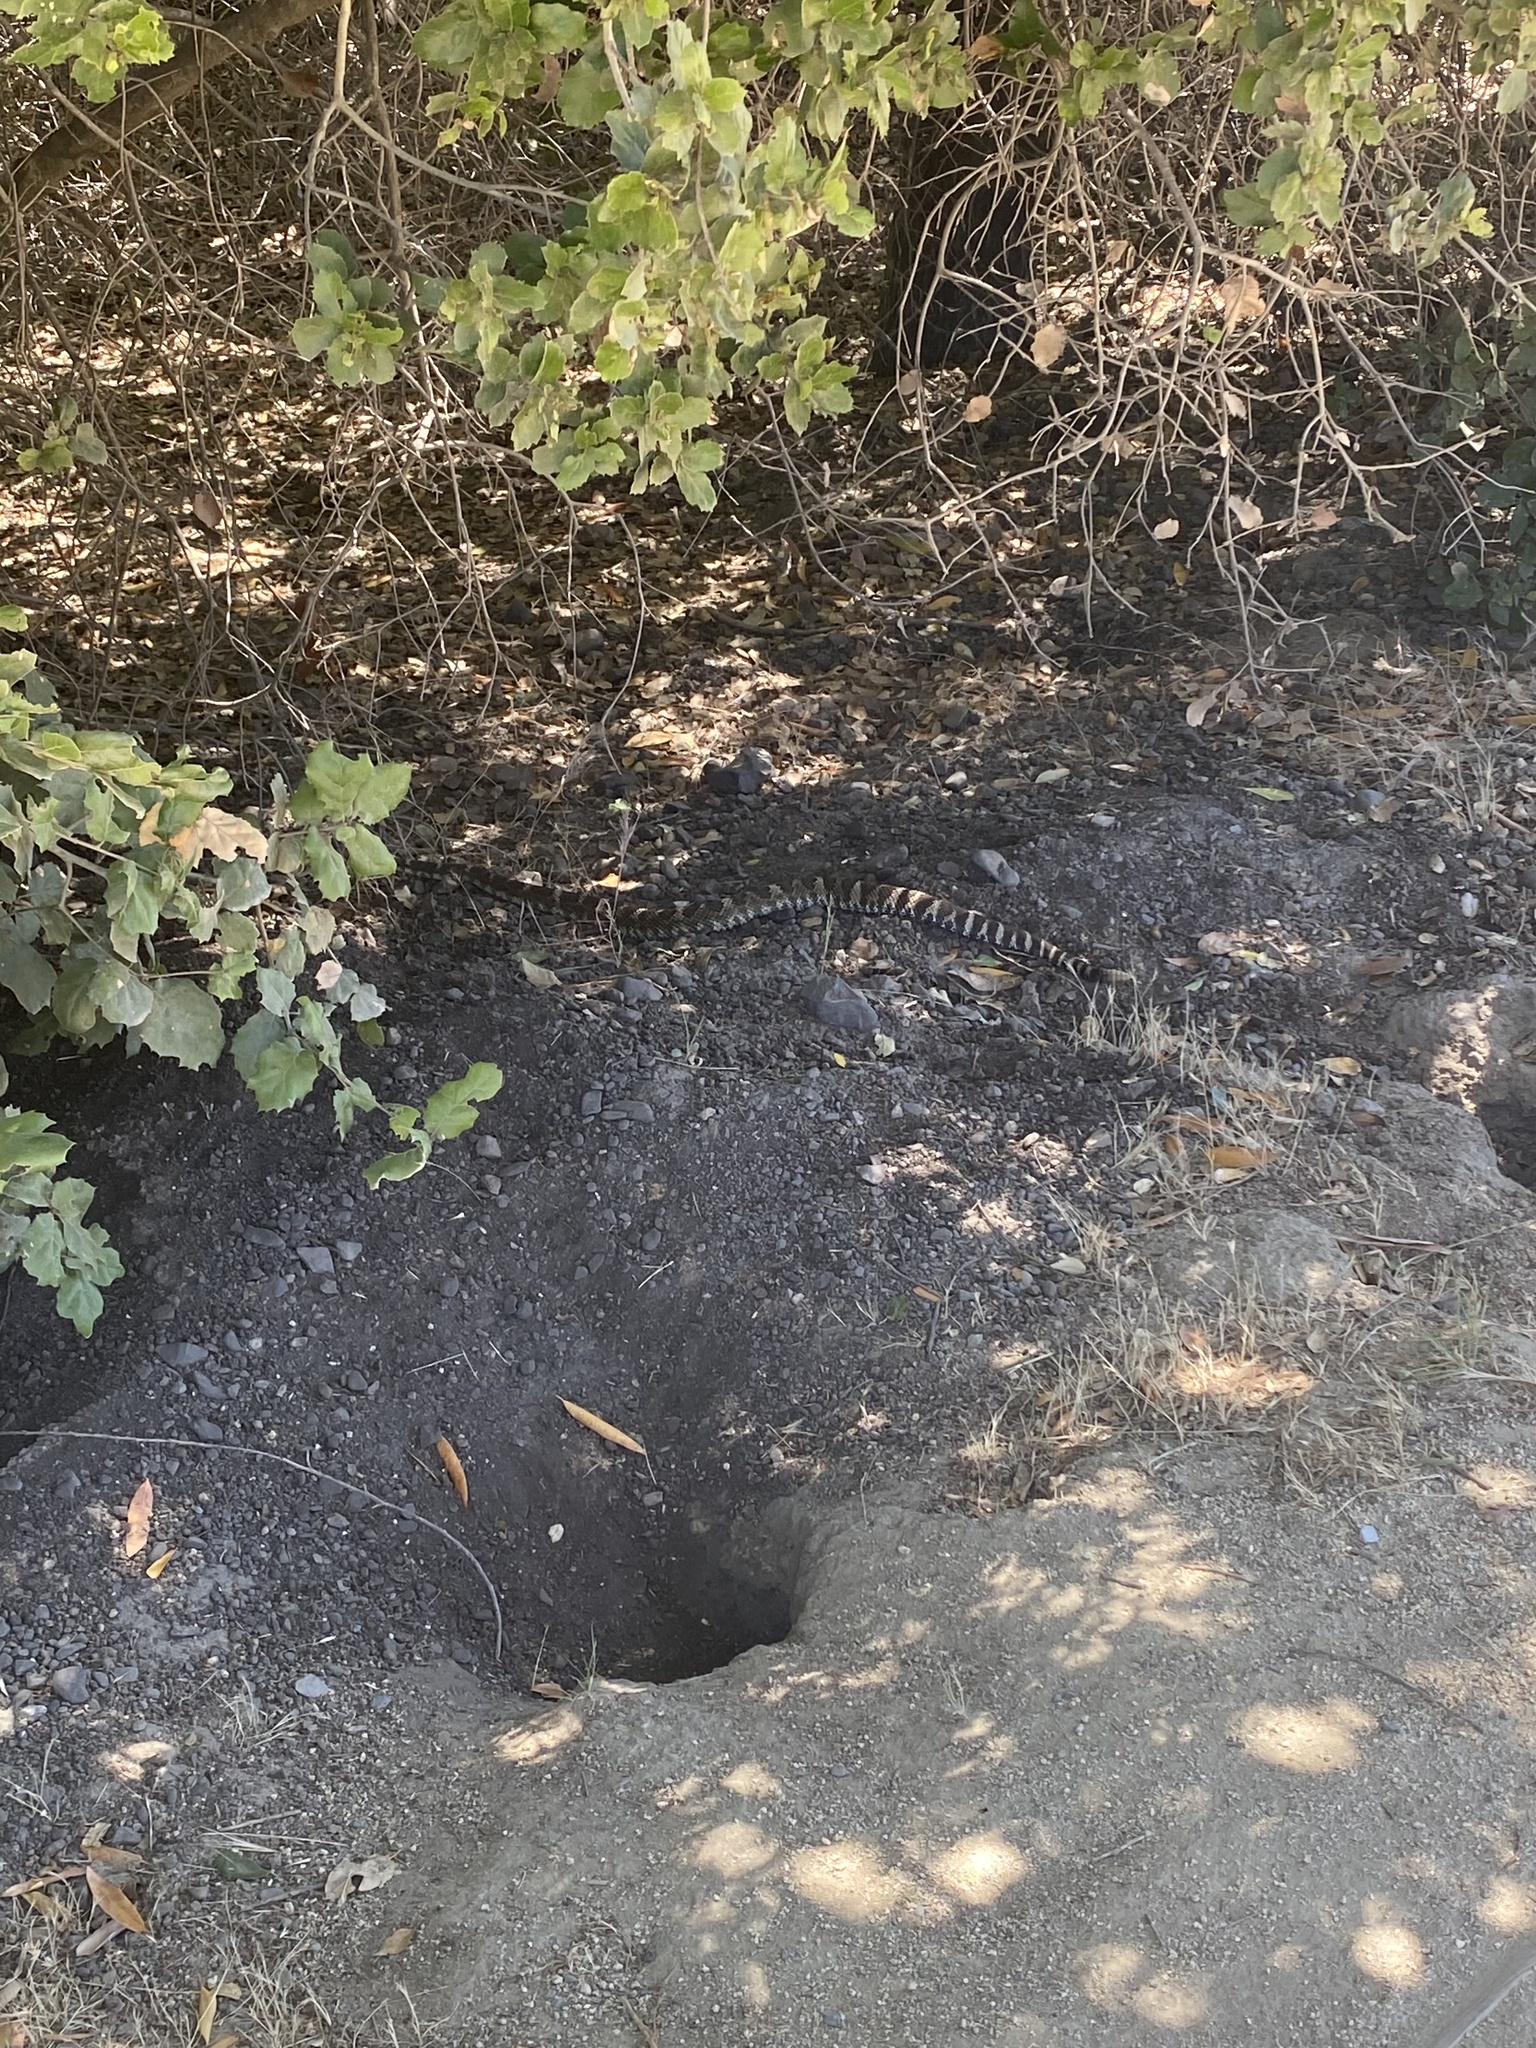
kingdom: Animalia
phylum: Chordata
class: Squamata
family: Viperidae
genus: Crotalus
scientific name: Crotalus oreganus
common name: Abyssus
